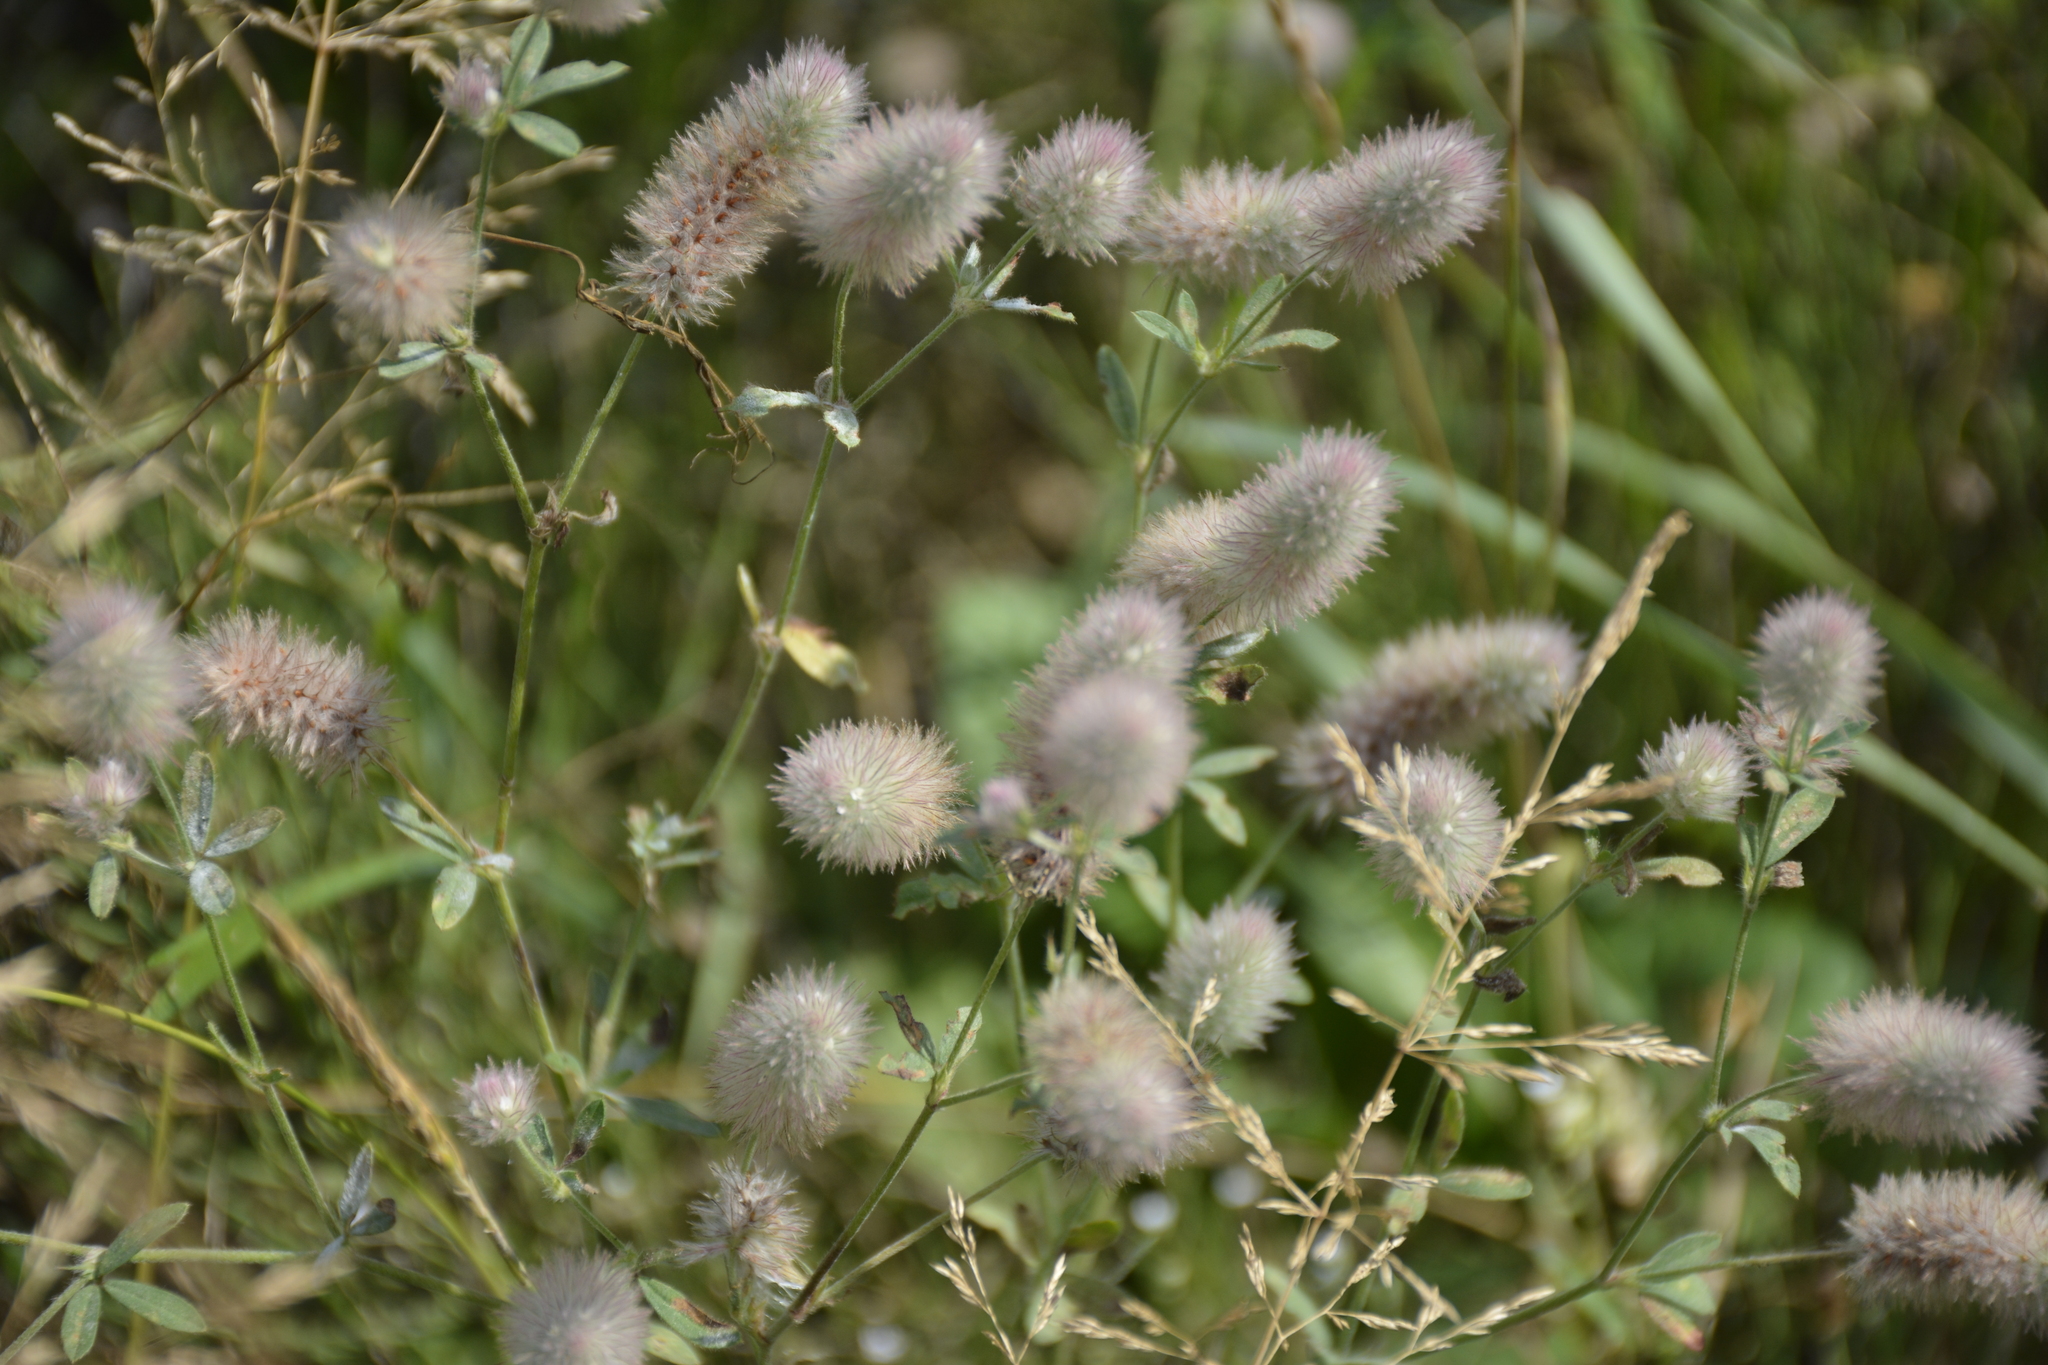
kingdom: Plantae
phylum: Tracheophyta
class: Magnoliopsida
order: Fabales
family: Fabaceae
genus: Trifolium
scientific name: Trifolium arvense
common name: Hare's-foot clover
